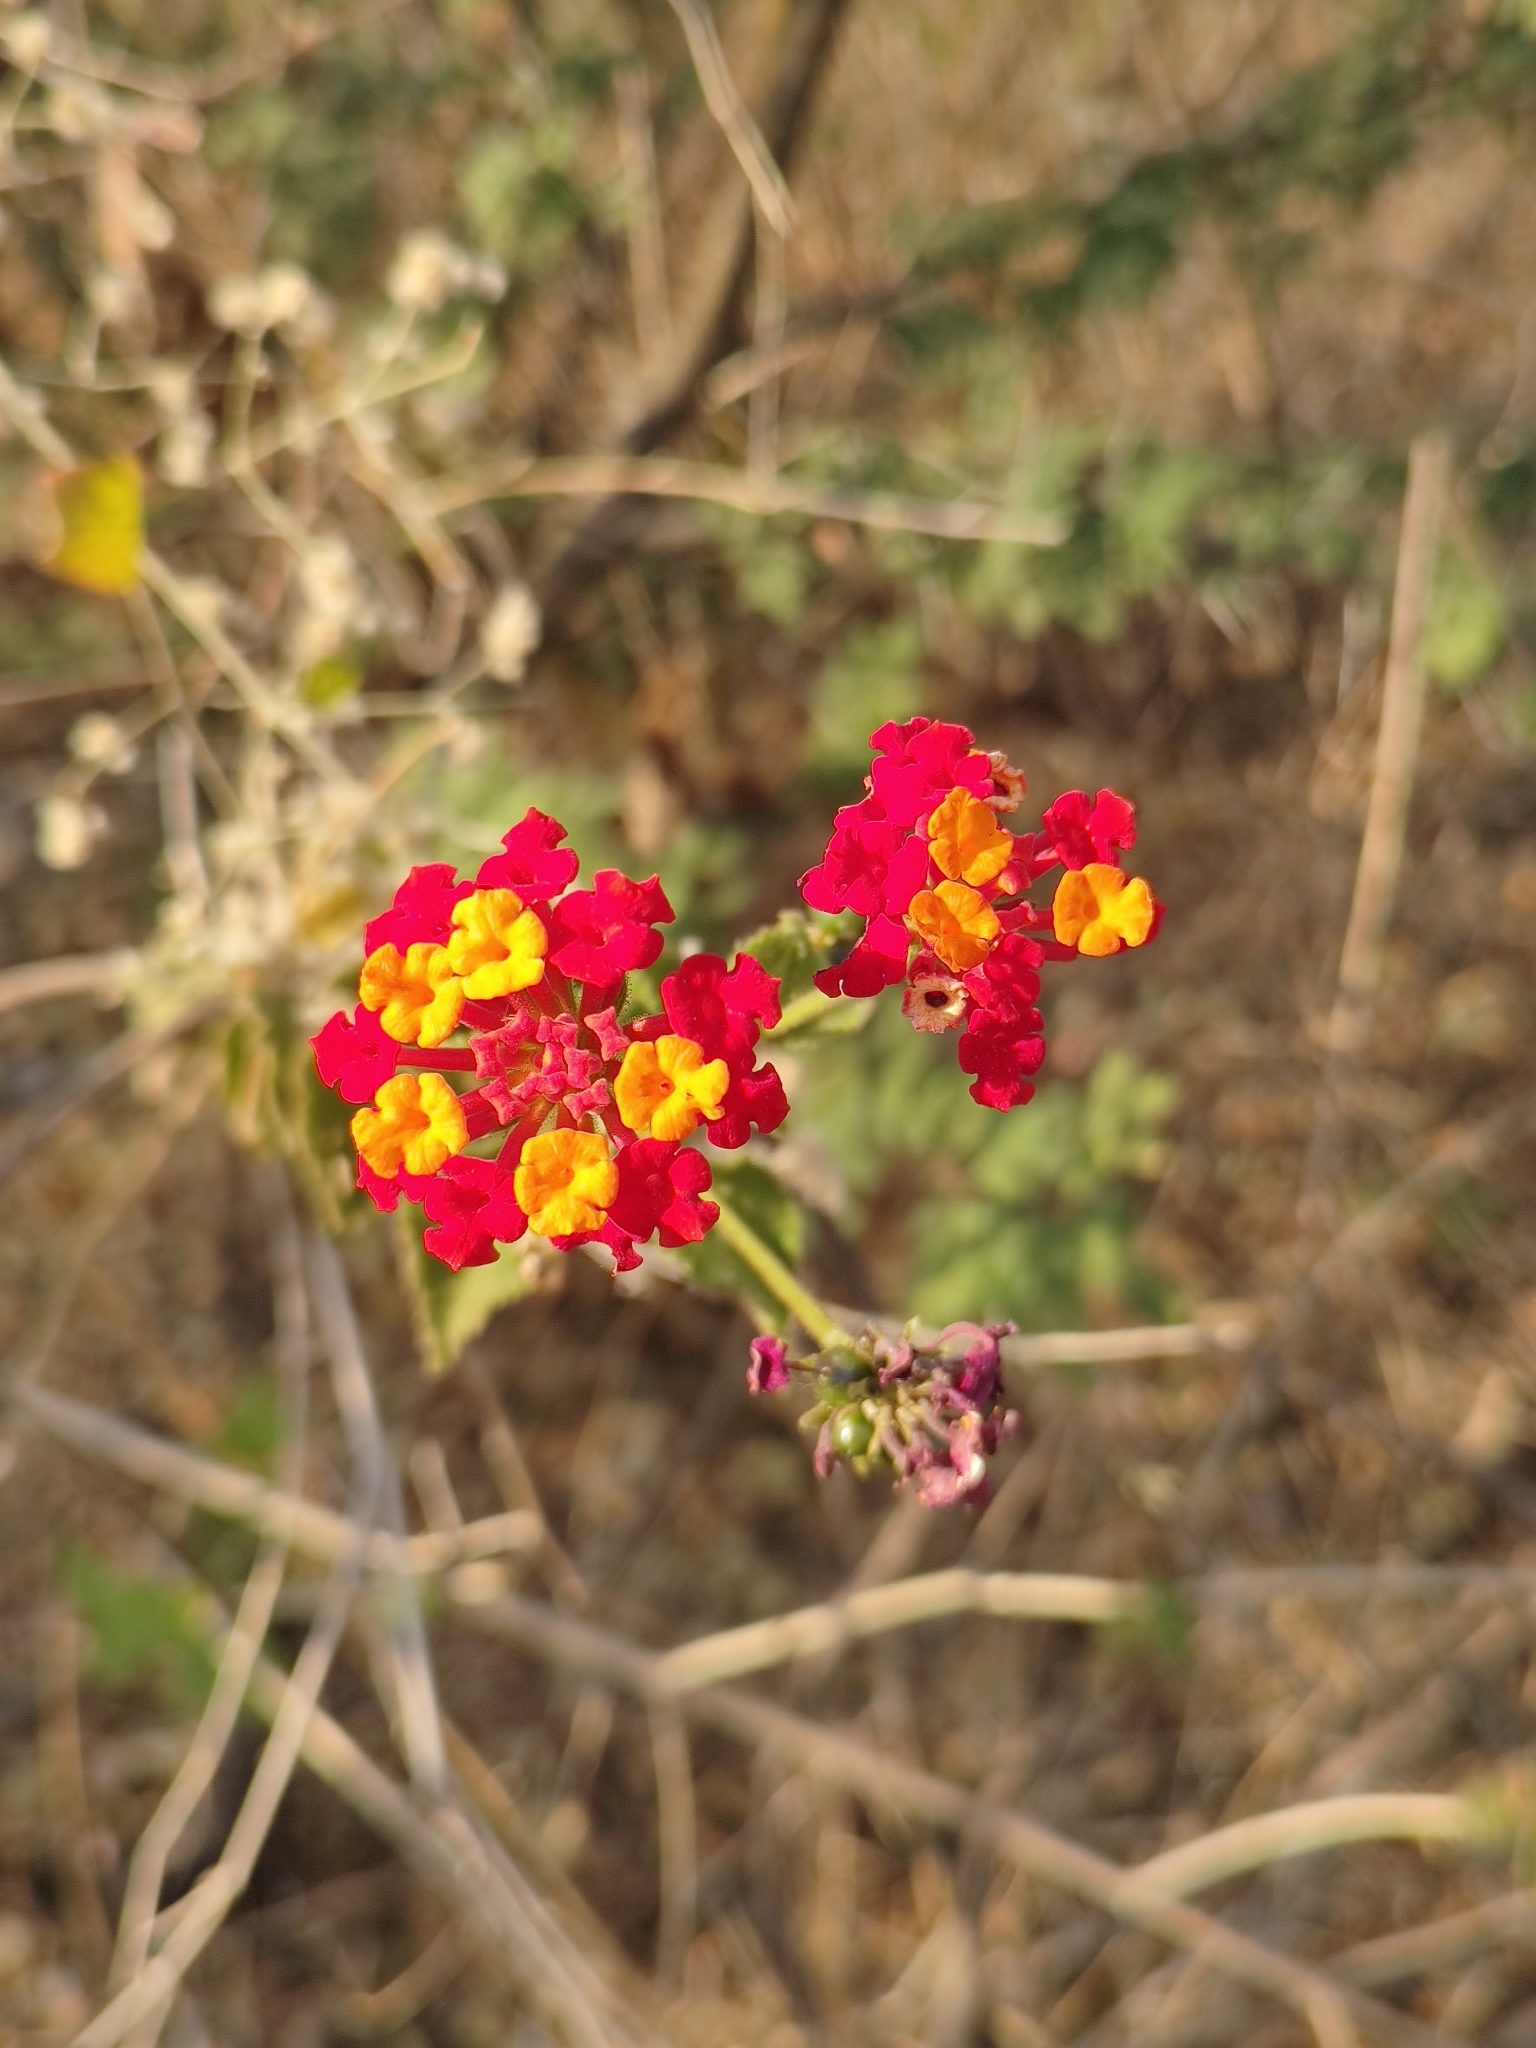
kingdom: Plantae
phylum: Tracheophyta
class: Magnoliopsida
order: Lamiales
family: Verbenaceae
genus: Lantana
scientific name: Lantana camara
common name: Lantana
